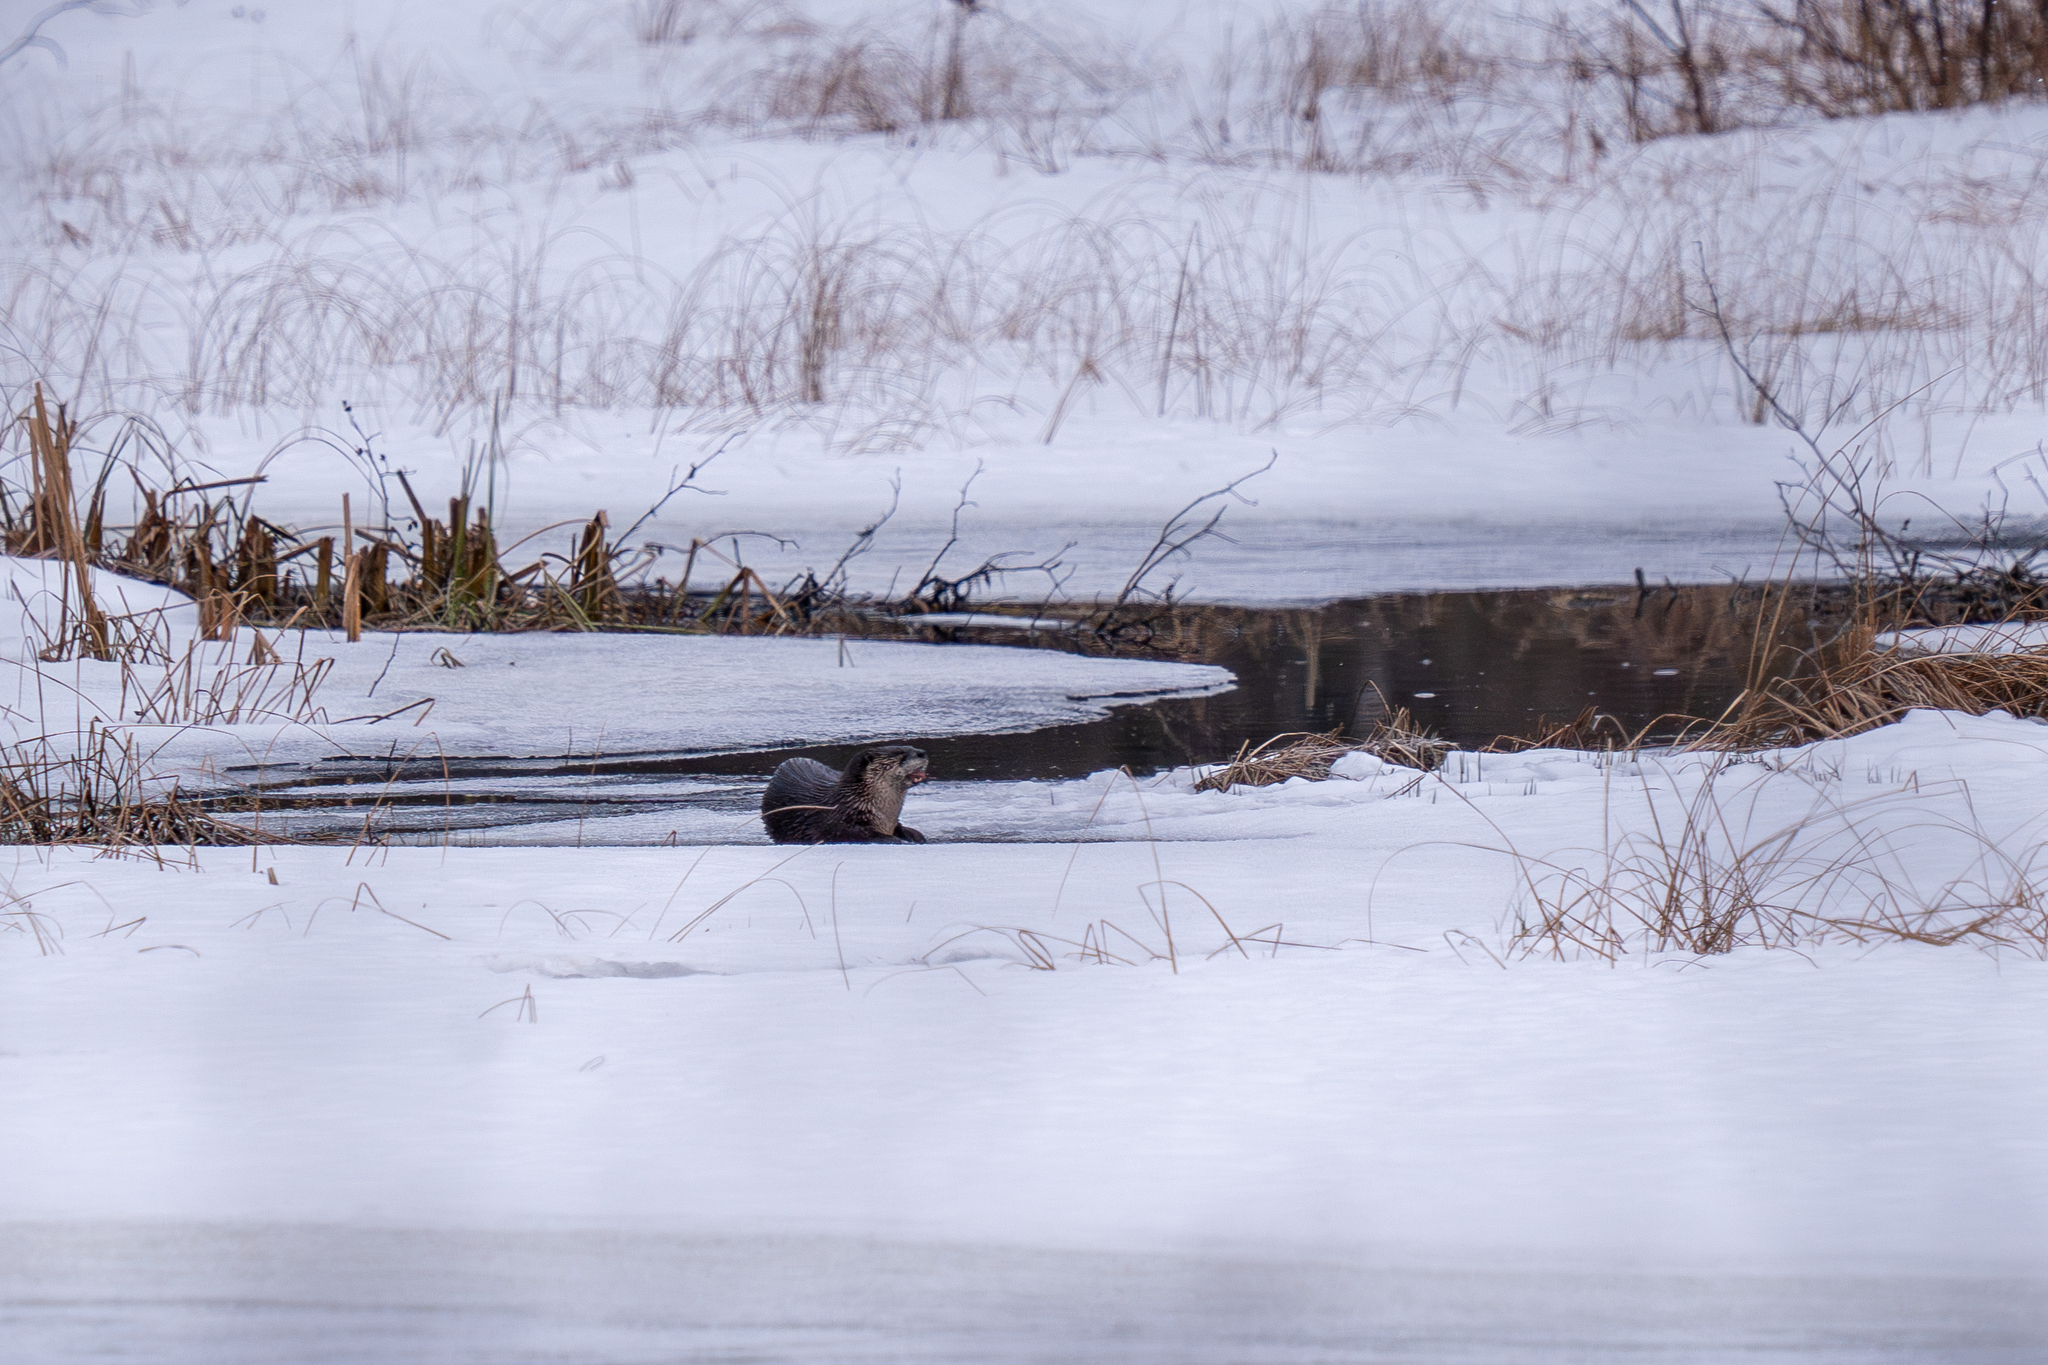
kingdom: Animalia
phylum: Chordata
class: Mammalia
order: Carnivora
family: Mustelidae
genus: Lontra
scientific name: Lontra canadensis
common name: North american river otter
